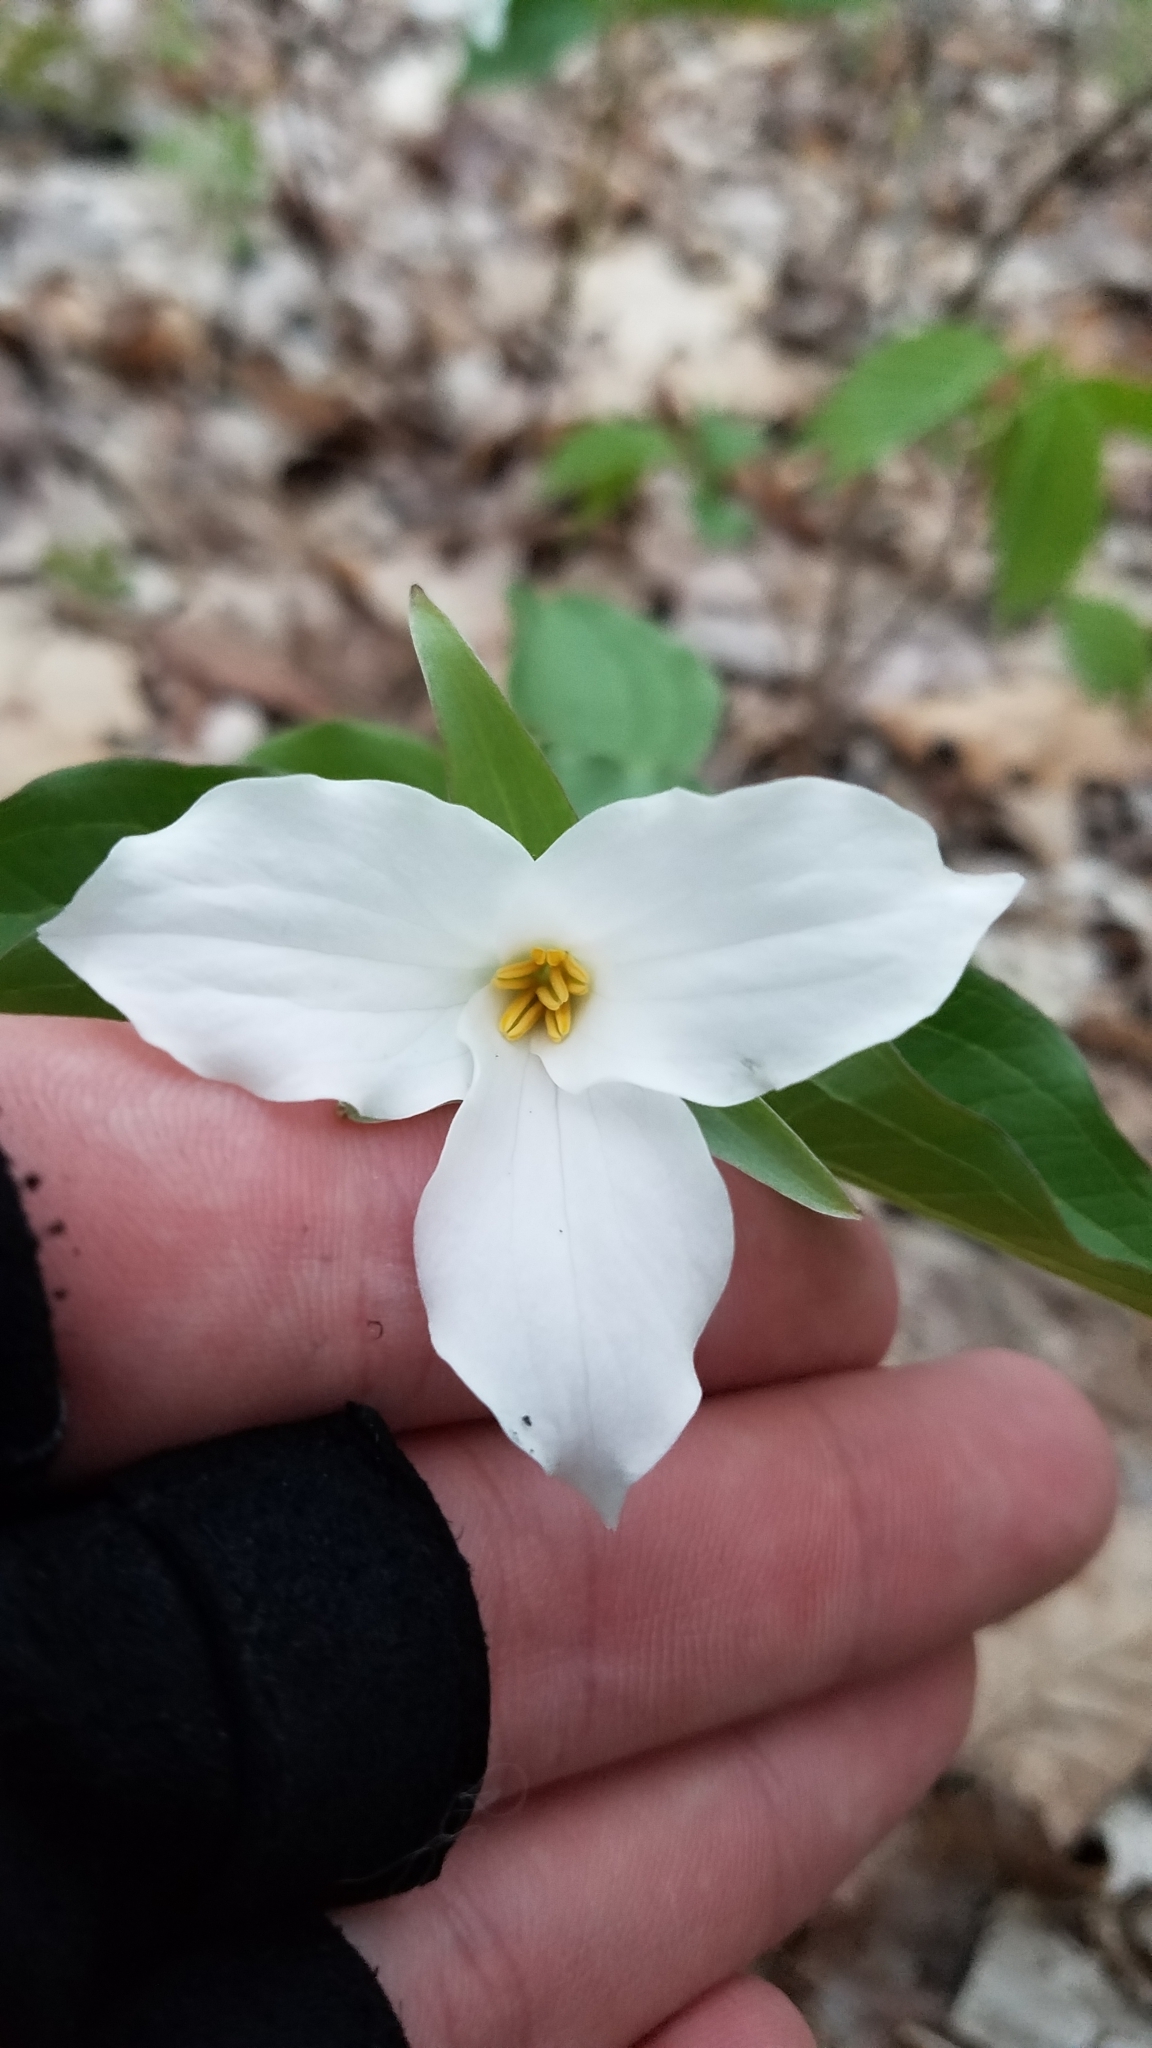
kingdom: Plantae
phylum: Tracheophyta
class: Liliopsida
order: Liliales
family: Melanthiaceae
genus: Trillium
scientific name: Trillium grandiflorum
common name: Great white trillium
